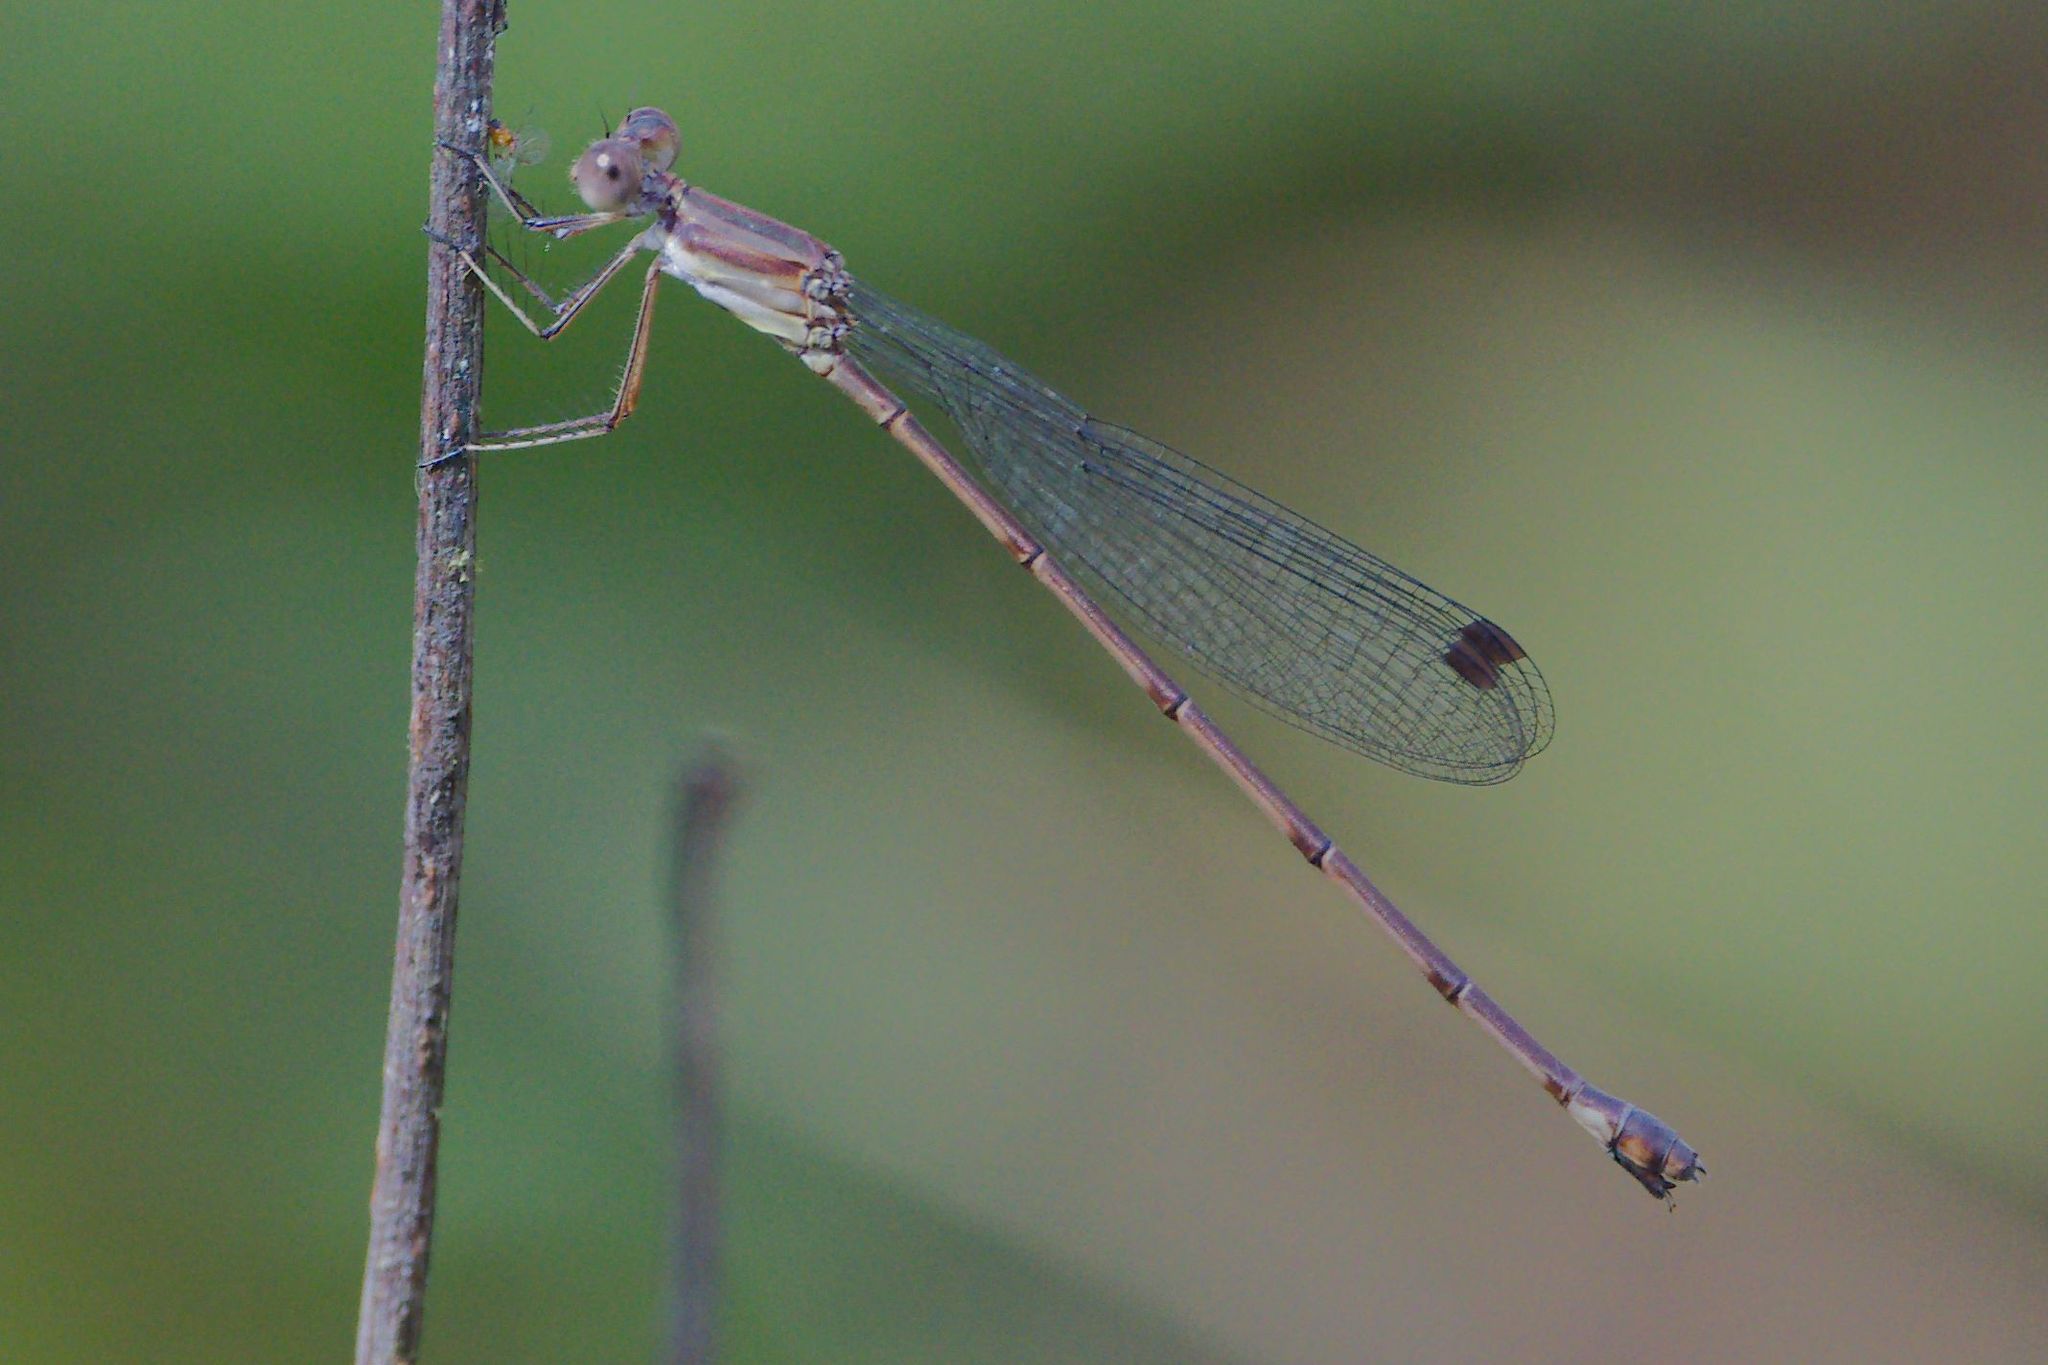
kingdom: Animalia
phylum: Arthropoda
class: Insecta
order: Odonata
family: Lestidae
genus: Lestes
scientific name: Lestes tenuatus
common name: Blue-striped spreadwing
